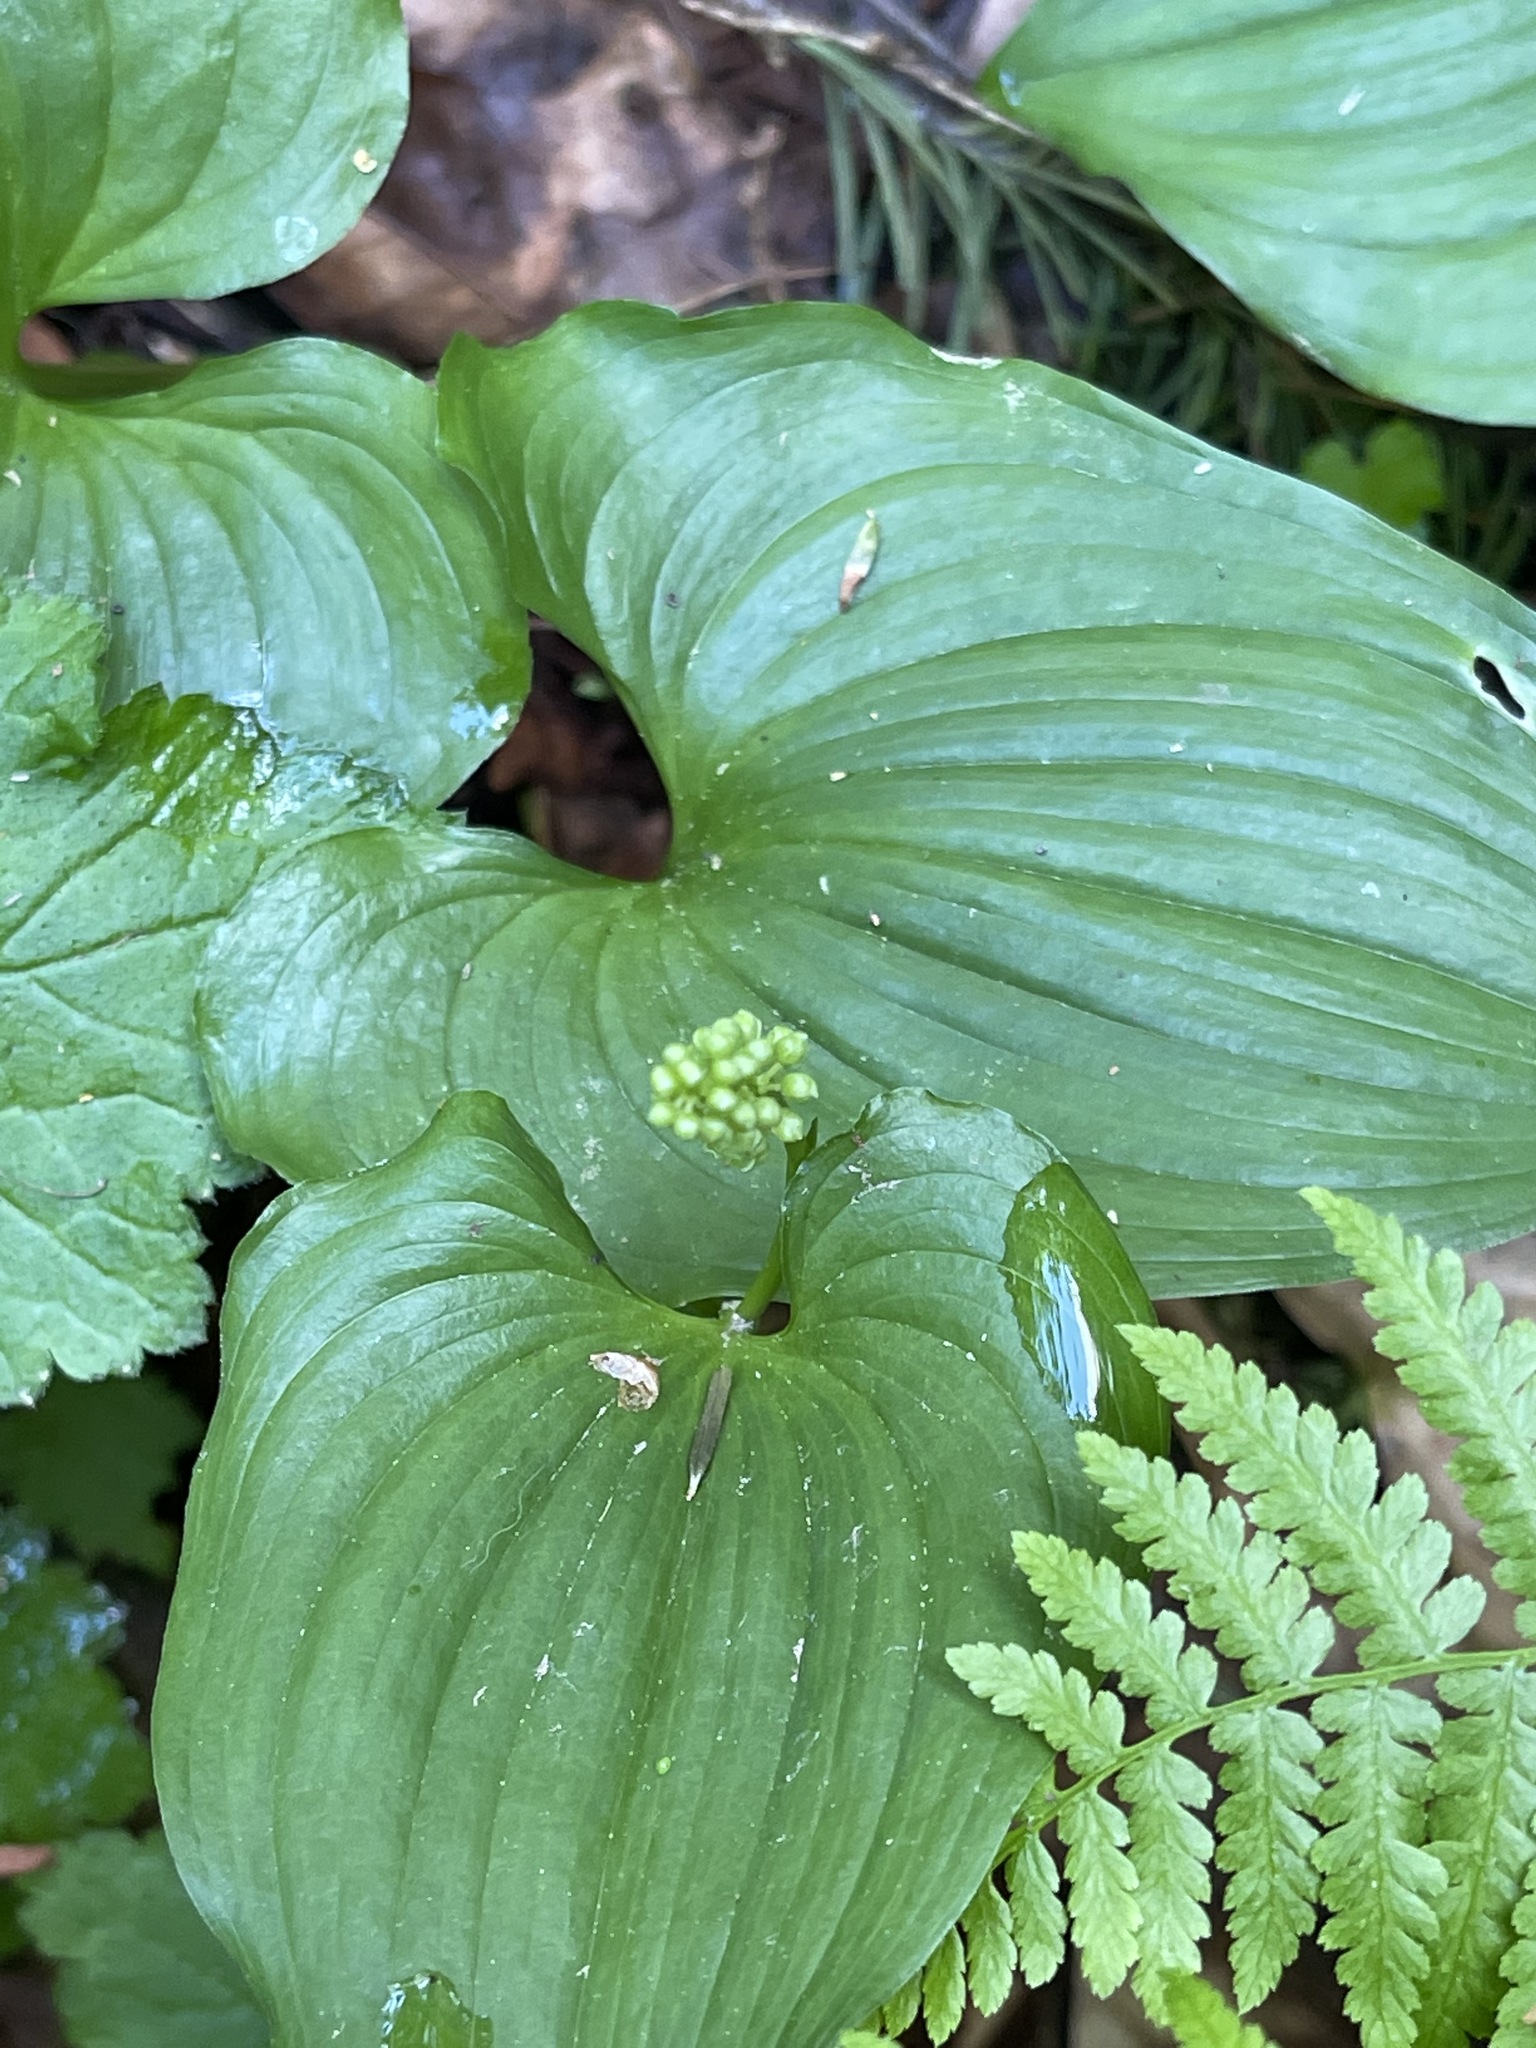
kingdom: Plantae
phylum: Tracheophyta
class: Liliopsida
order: Asparagales
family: Asparagaceae
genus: Maianthemum
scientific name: Maianthemum dilatatum
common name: False lily-of-the-valley
